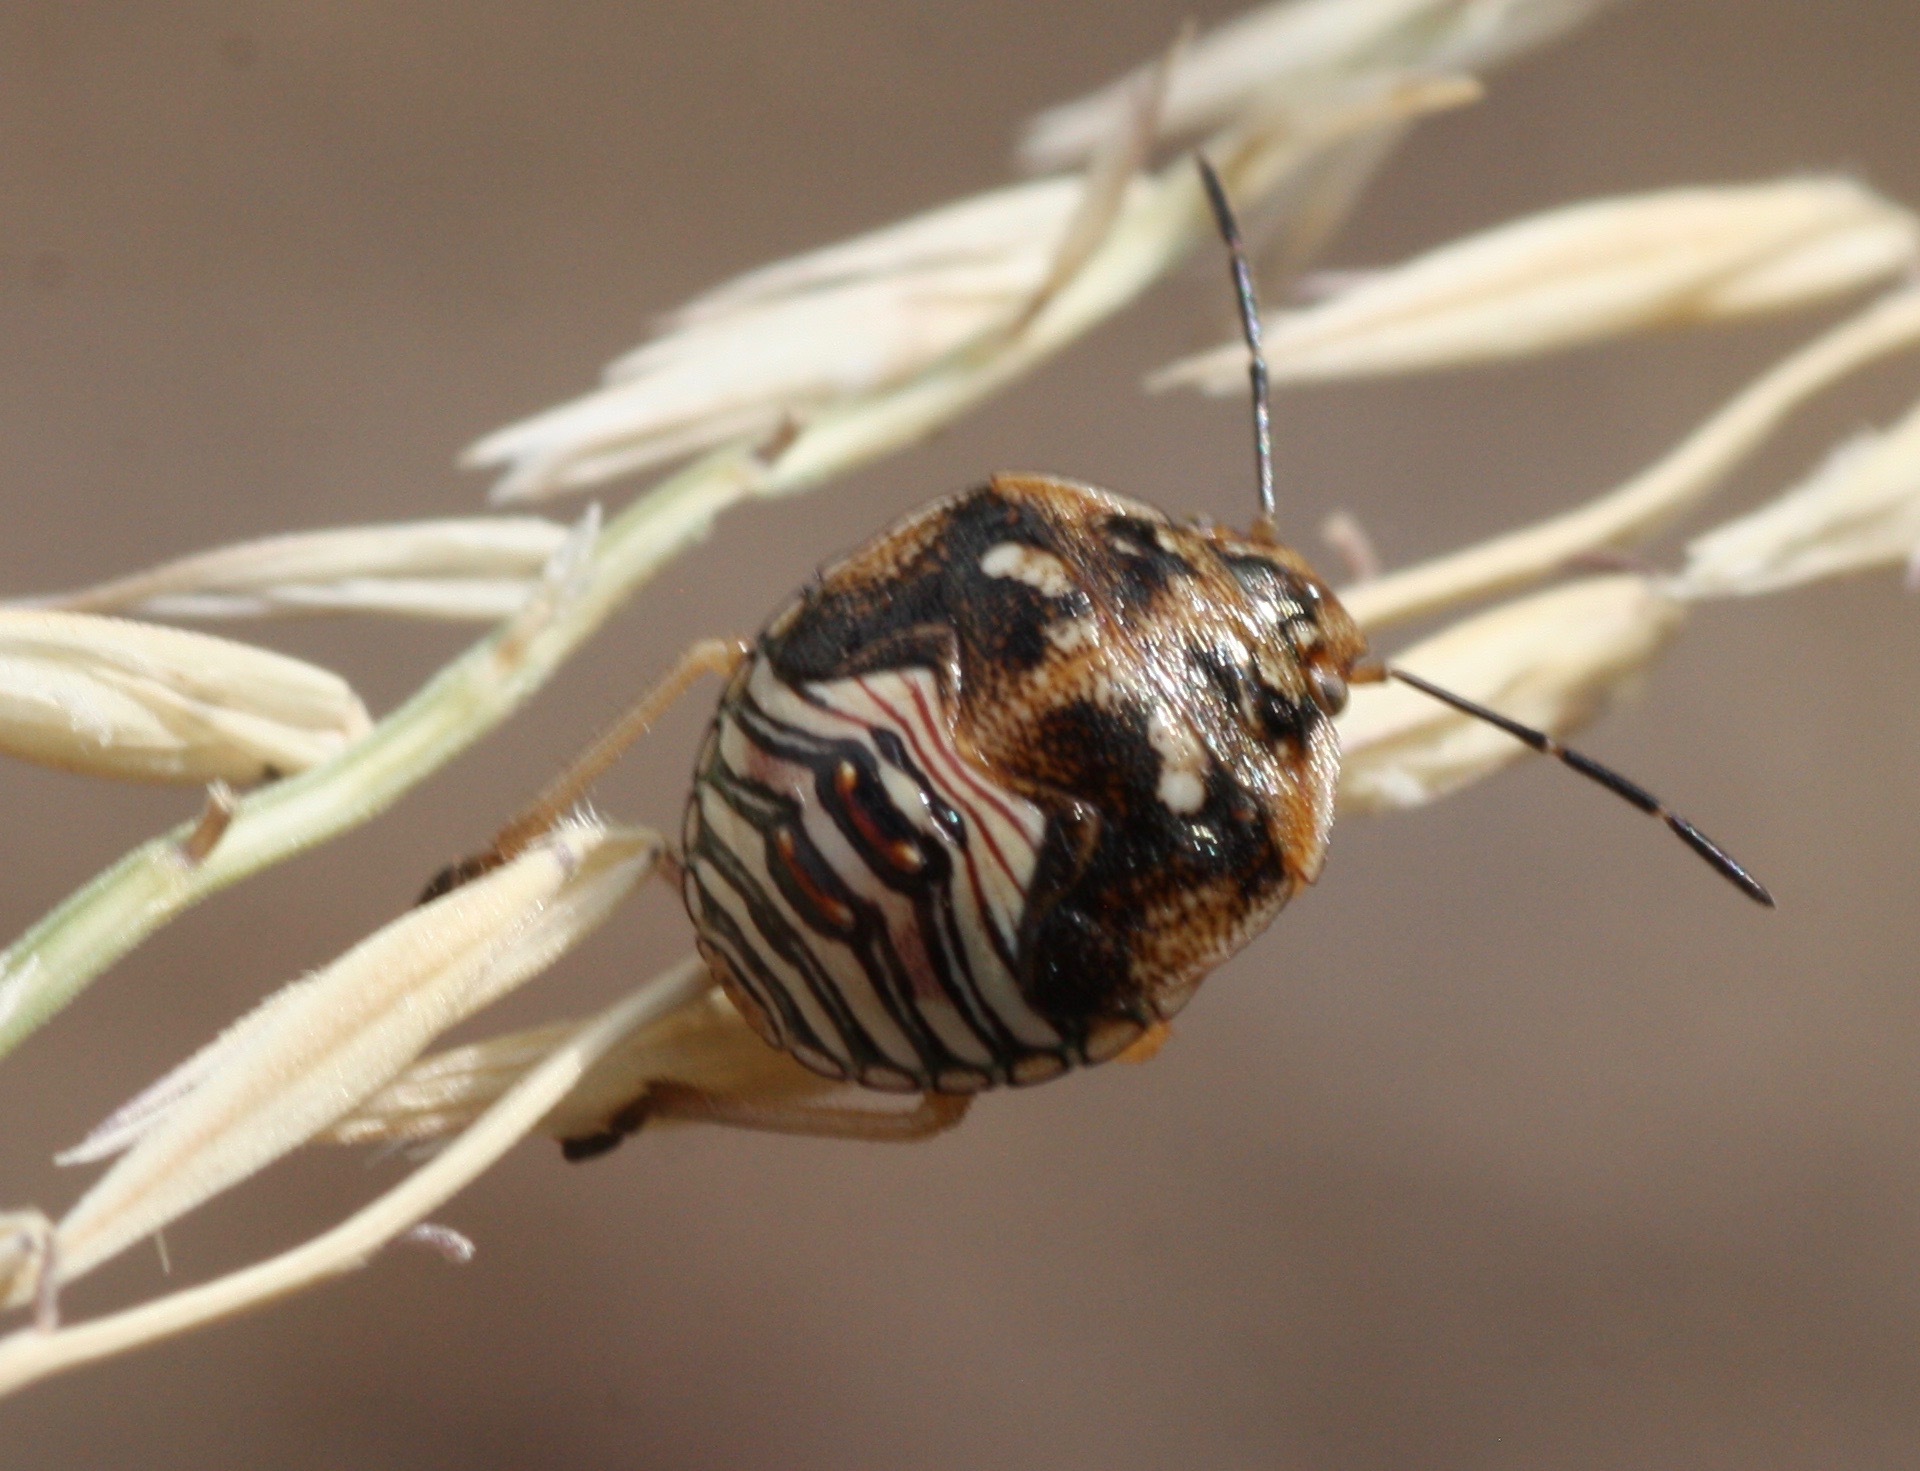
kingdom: Animalia
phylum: Arthropoda
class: Insecta
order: Hemiptera
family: Pentatomidae
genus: Thyanta
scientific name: Thyanta accerra
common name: Stink bug
